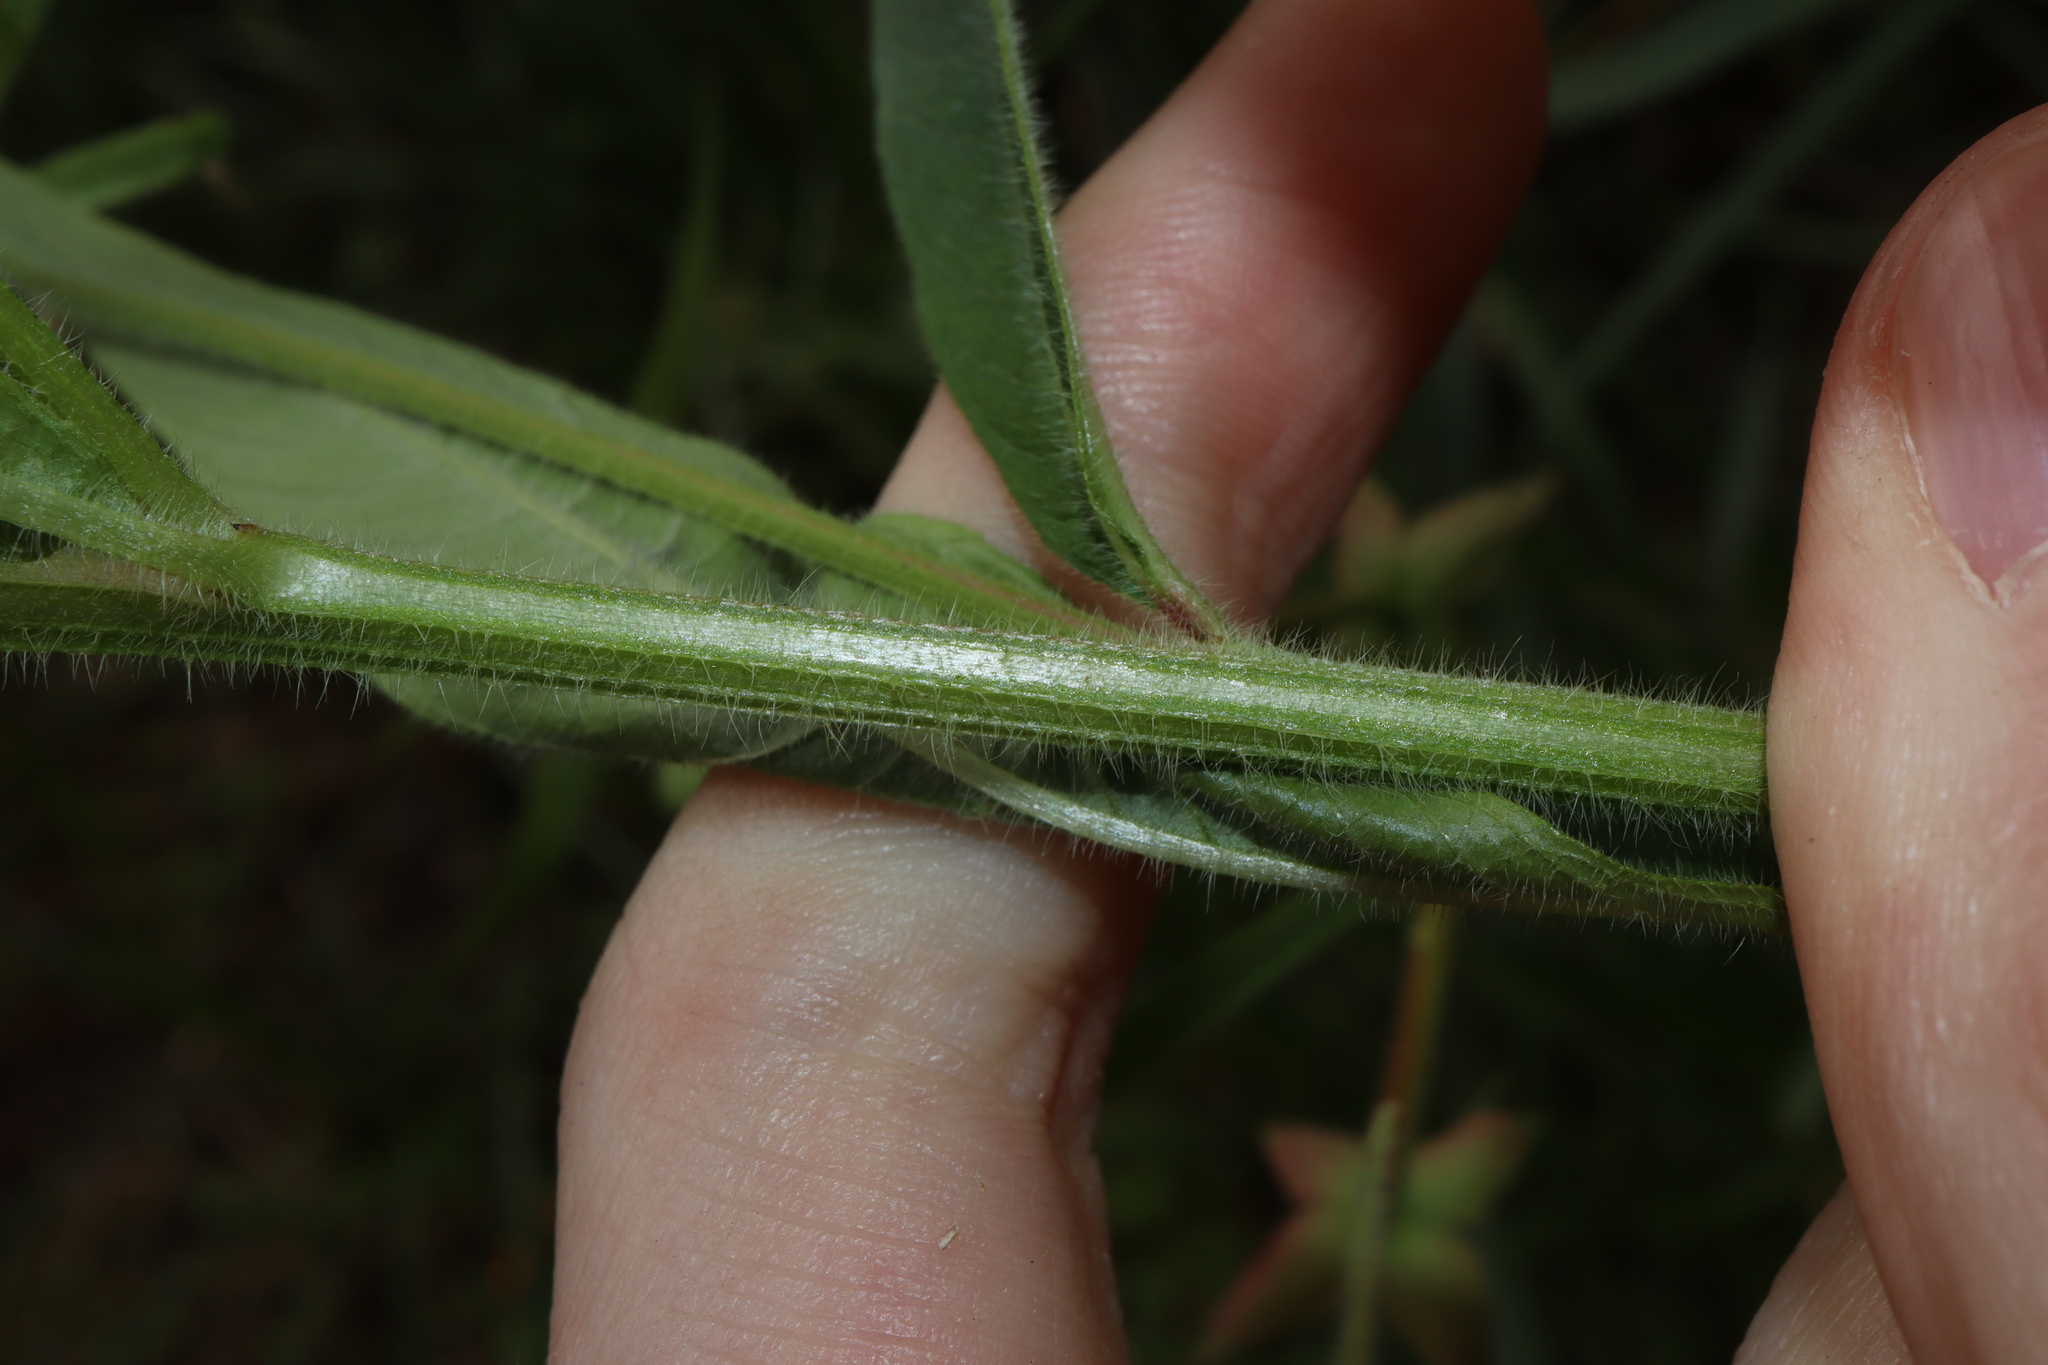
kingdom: Plantae
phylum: Tracheophyta
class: Magnoliopsida
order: Myrtales
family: Onagraceae
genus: Ludwigia
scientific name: Ludwigia octovalvis
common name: Water-primrose
